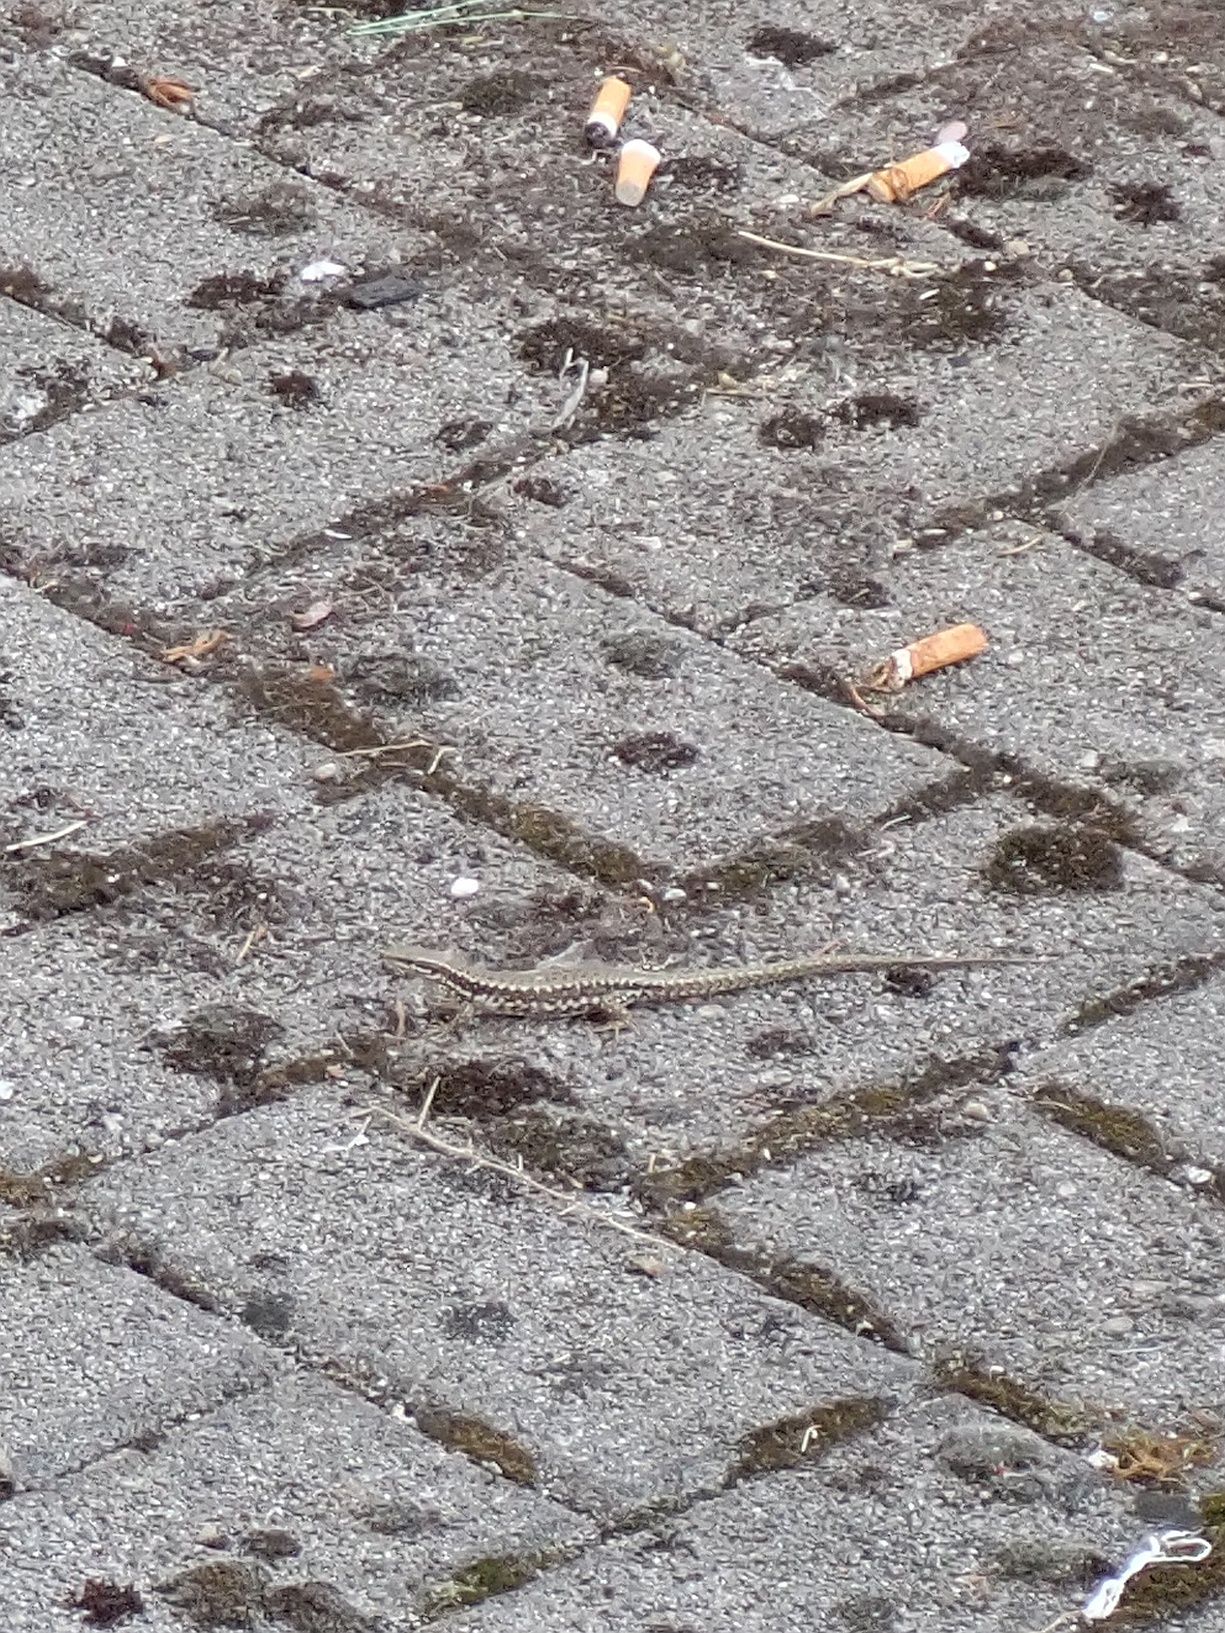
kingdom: Animalia
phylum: Chordata
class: Squamata
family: Lacertidae
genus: Podarcis
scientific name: Podarcis muralis
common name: Common wall lizard
